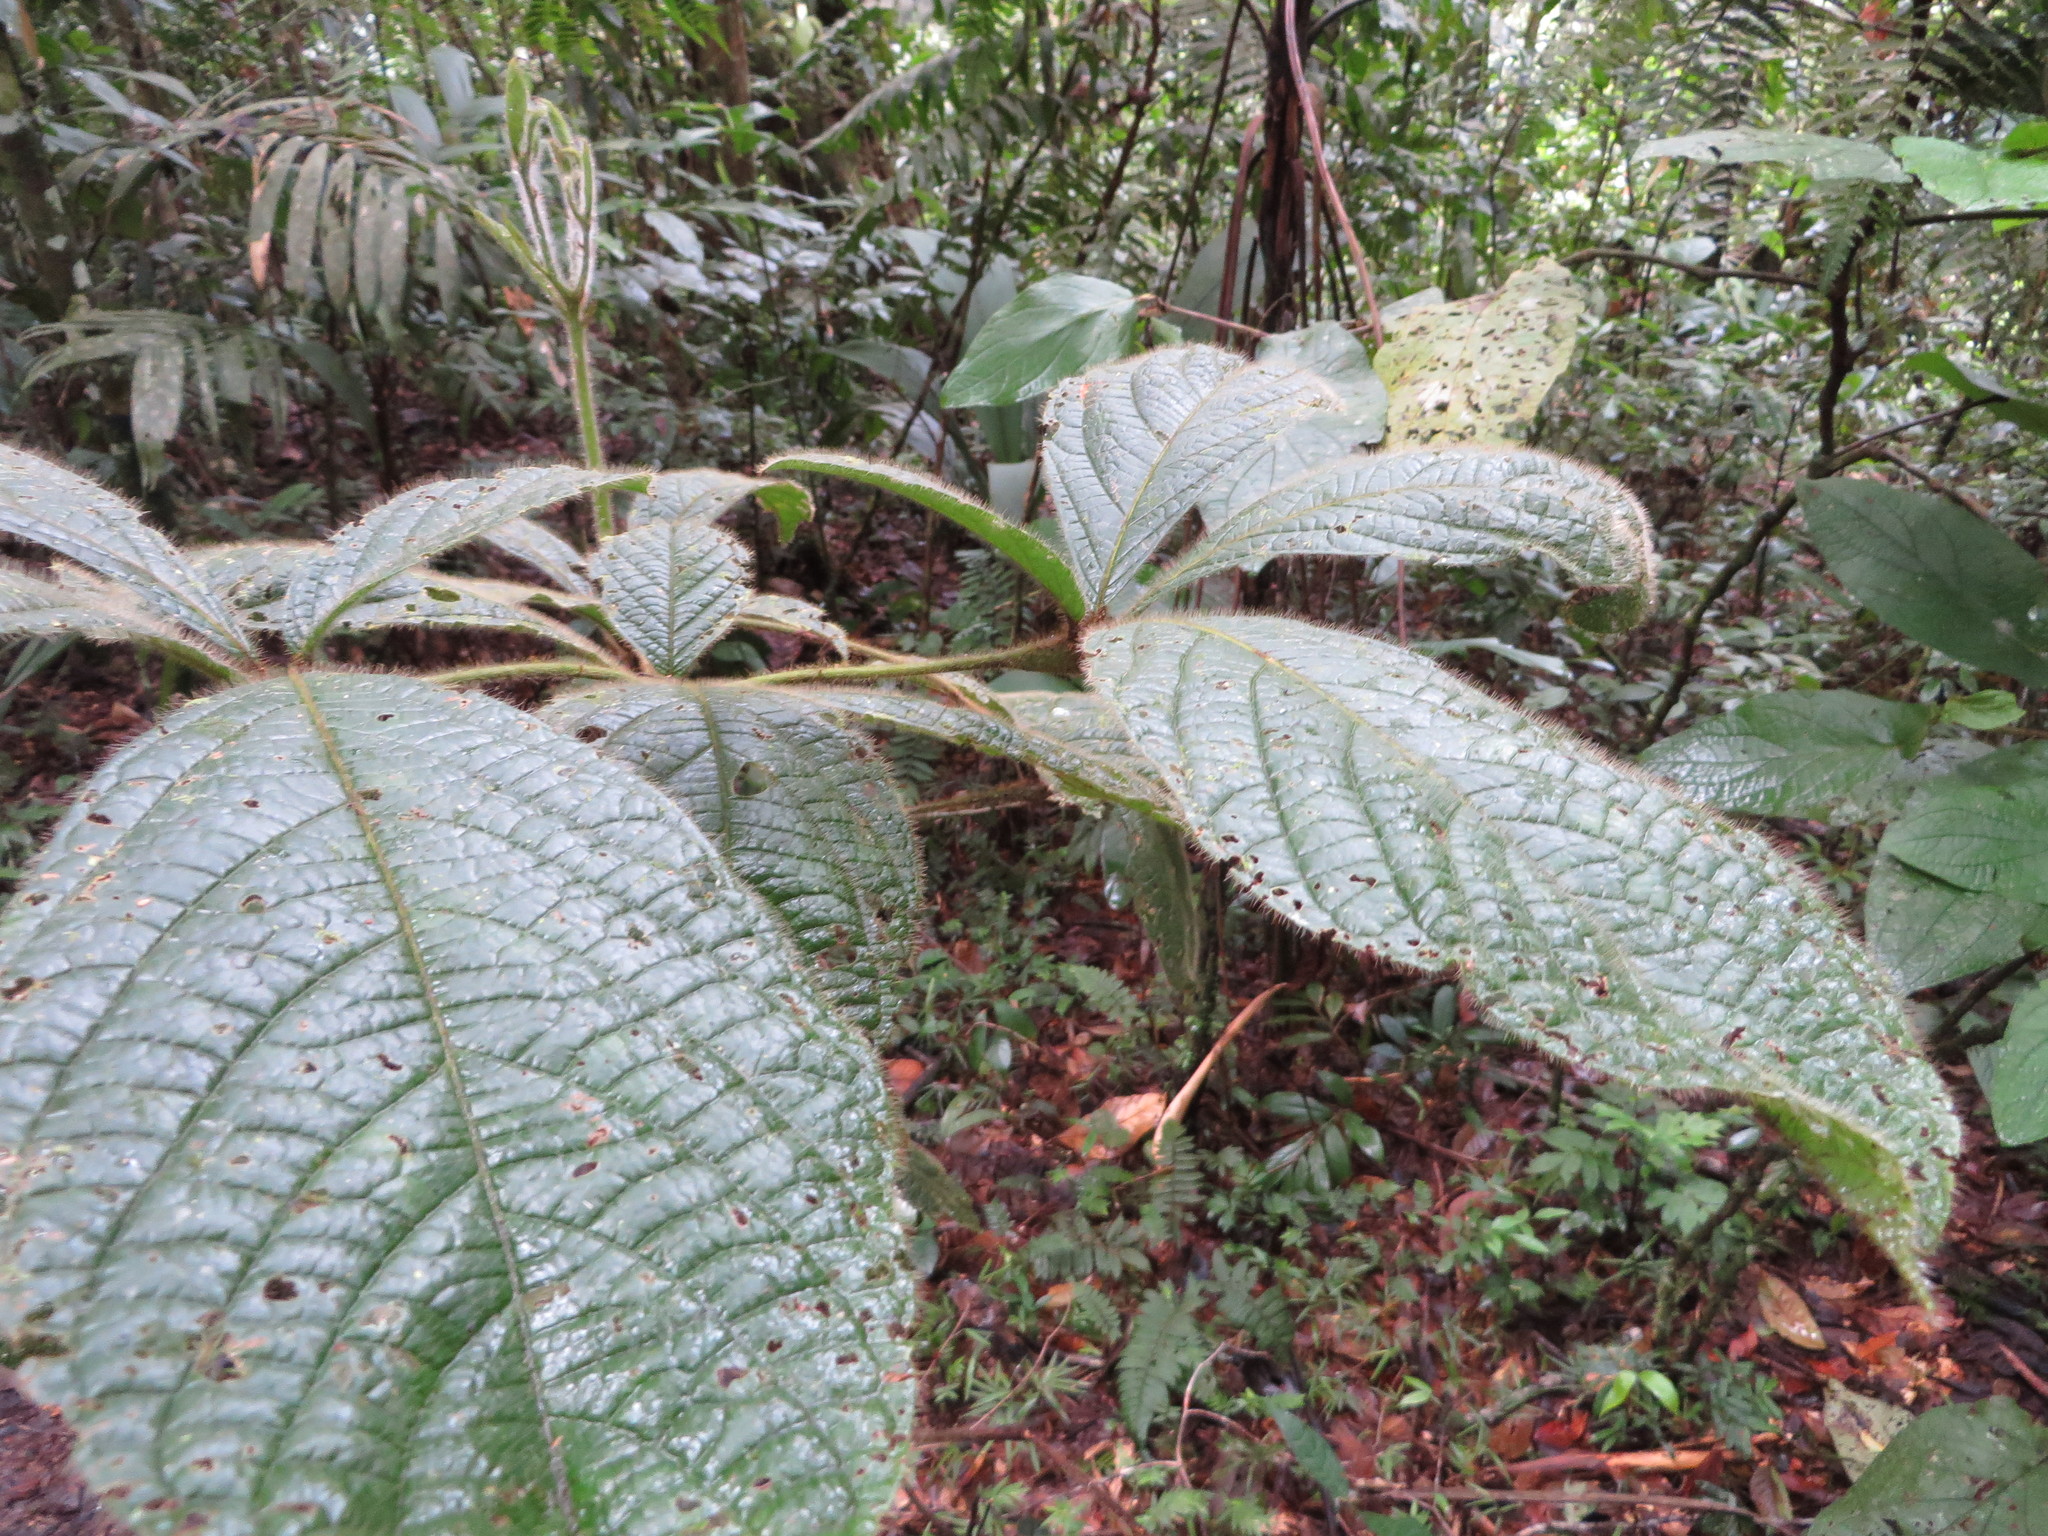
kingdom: Plantae
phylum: Tracheophyta
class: Magnoliopsida
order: Boraginales
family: Cordiaceae
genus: Cordia
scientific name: Cordia nodosa
